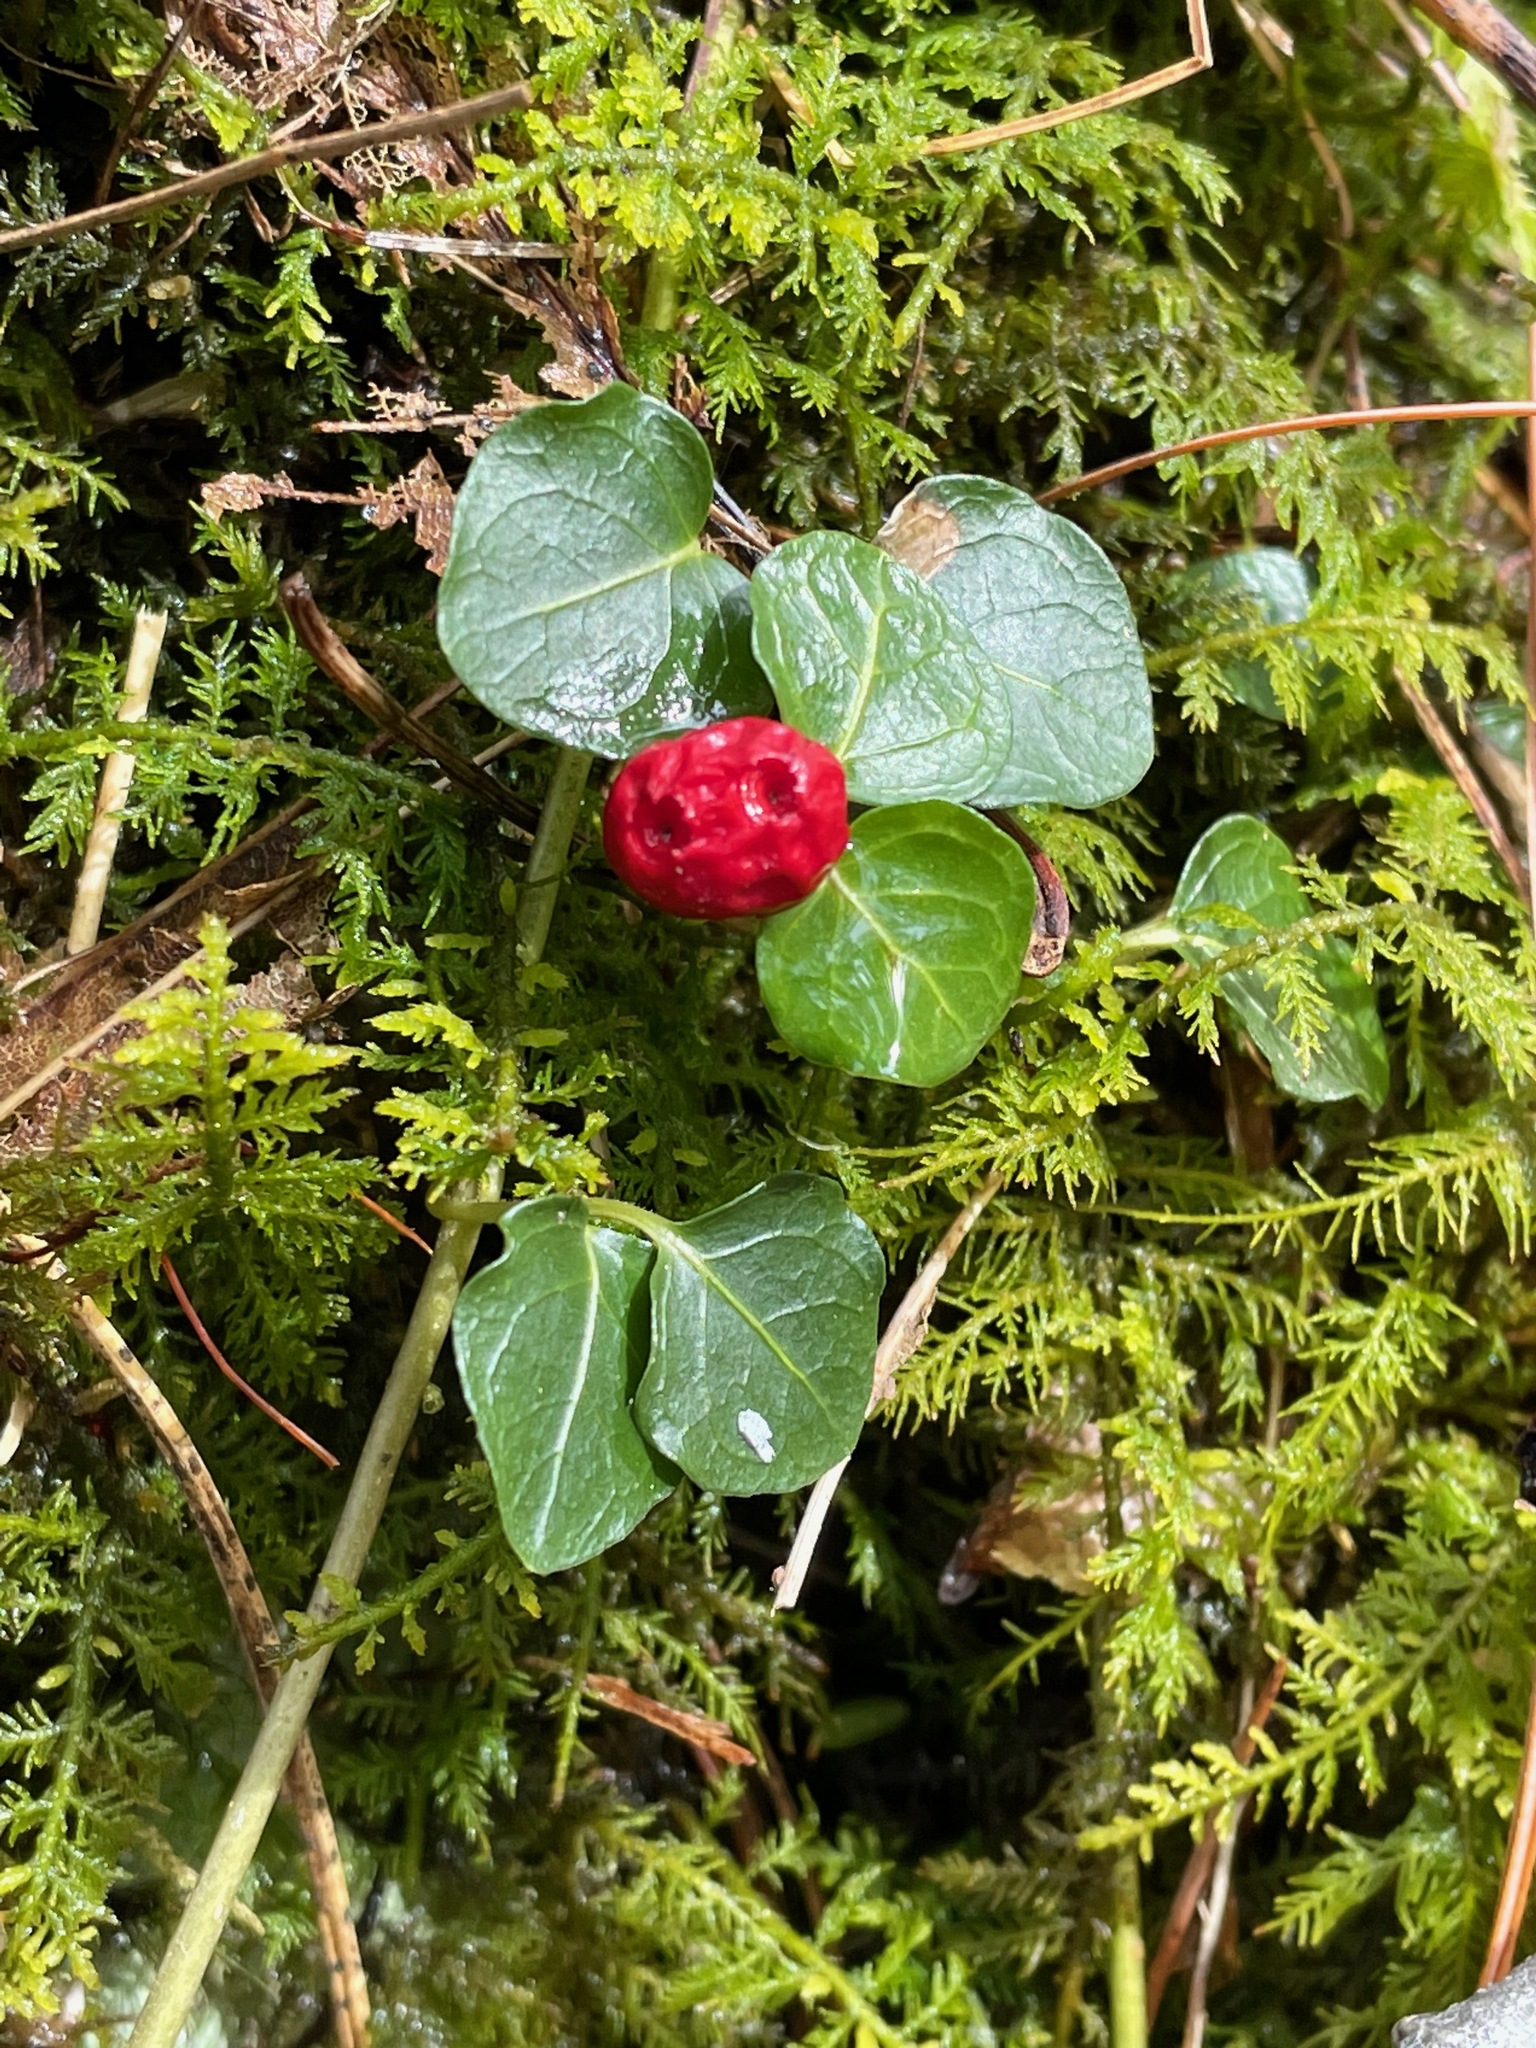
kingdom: Plantae
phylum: Tracheophyta
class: Magnoliopsida
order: Gentianales
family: Rubiaceae
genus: Mitchella
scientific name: Mitchella repens
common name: Partridge-berry
